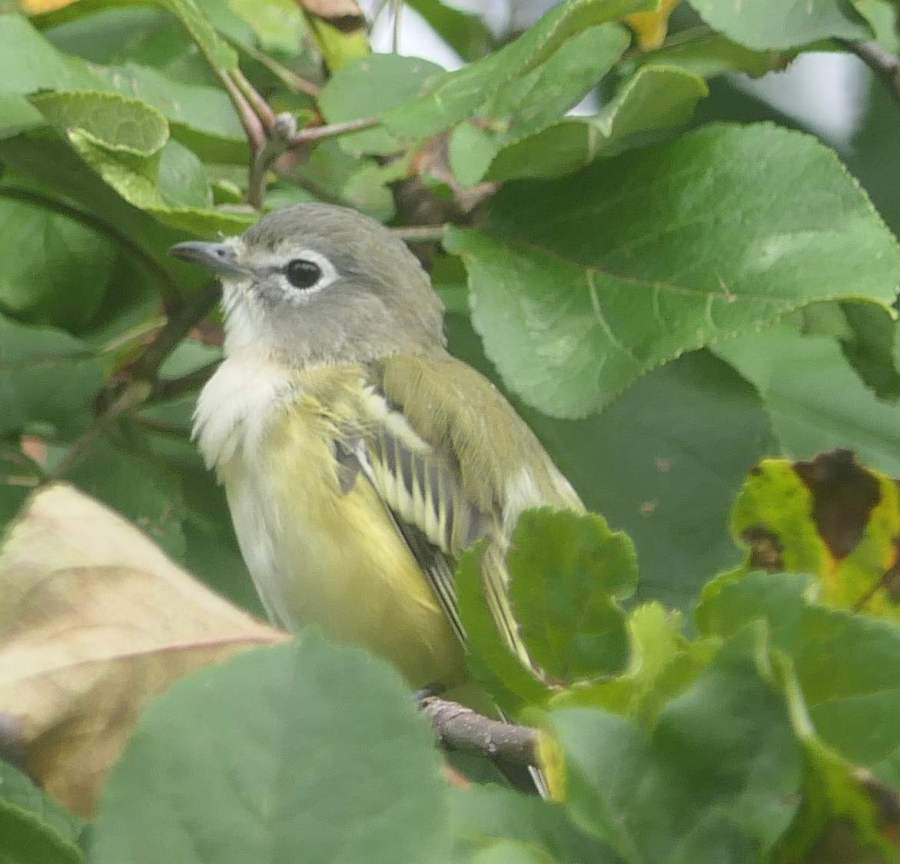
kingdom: Animalia
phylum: Chordata
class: Aves
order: Passeriformes
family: Vireonidae
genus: Vireo
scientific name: Vireo solitarius
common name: Blue-headed vireo
